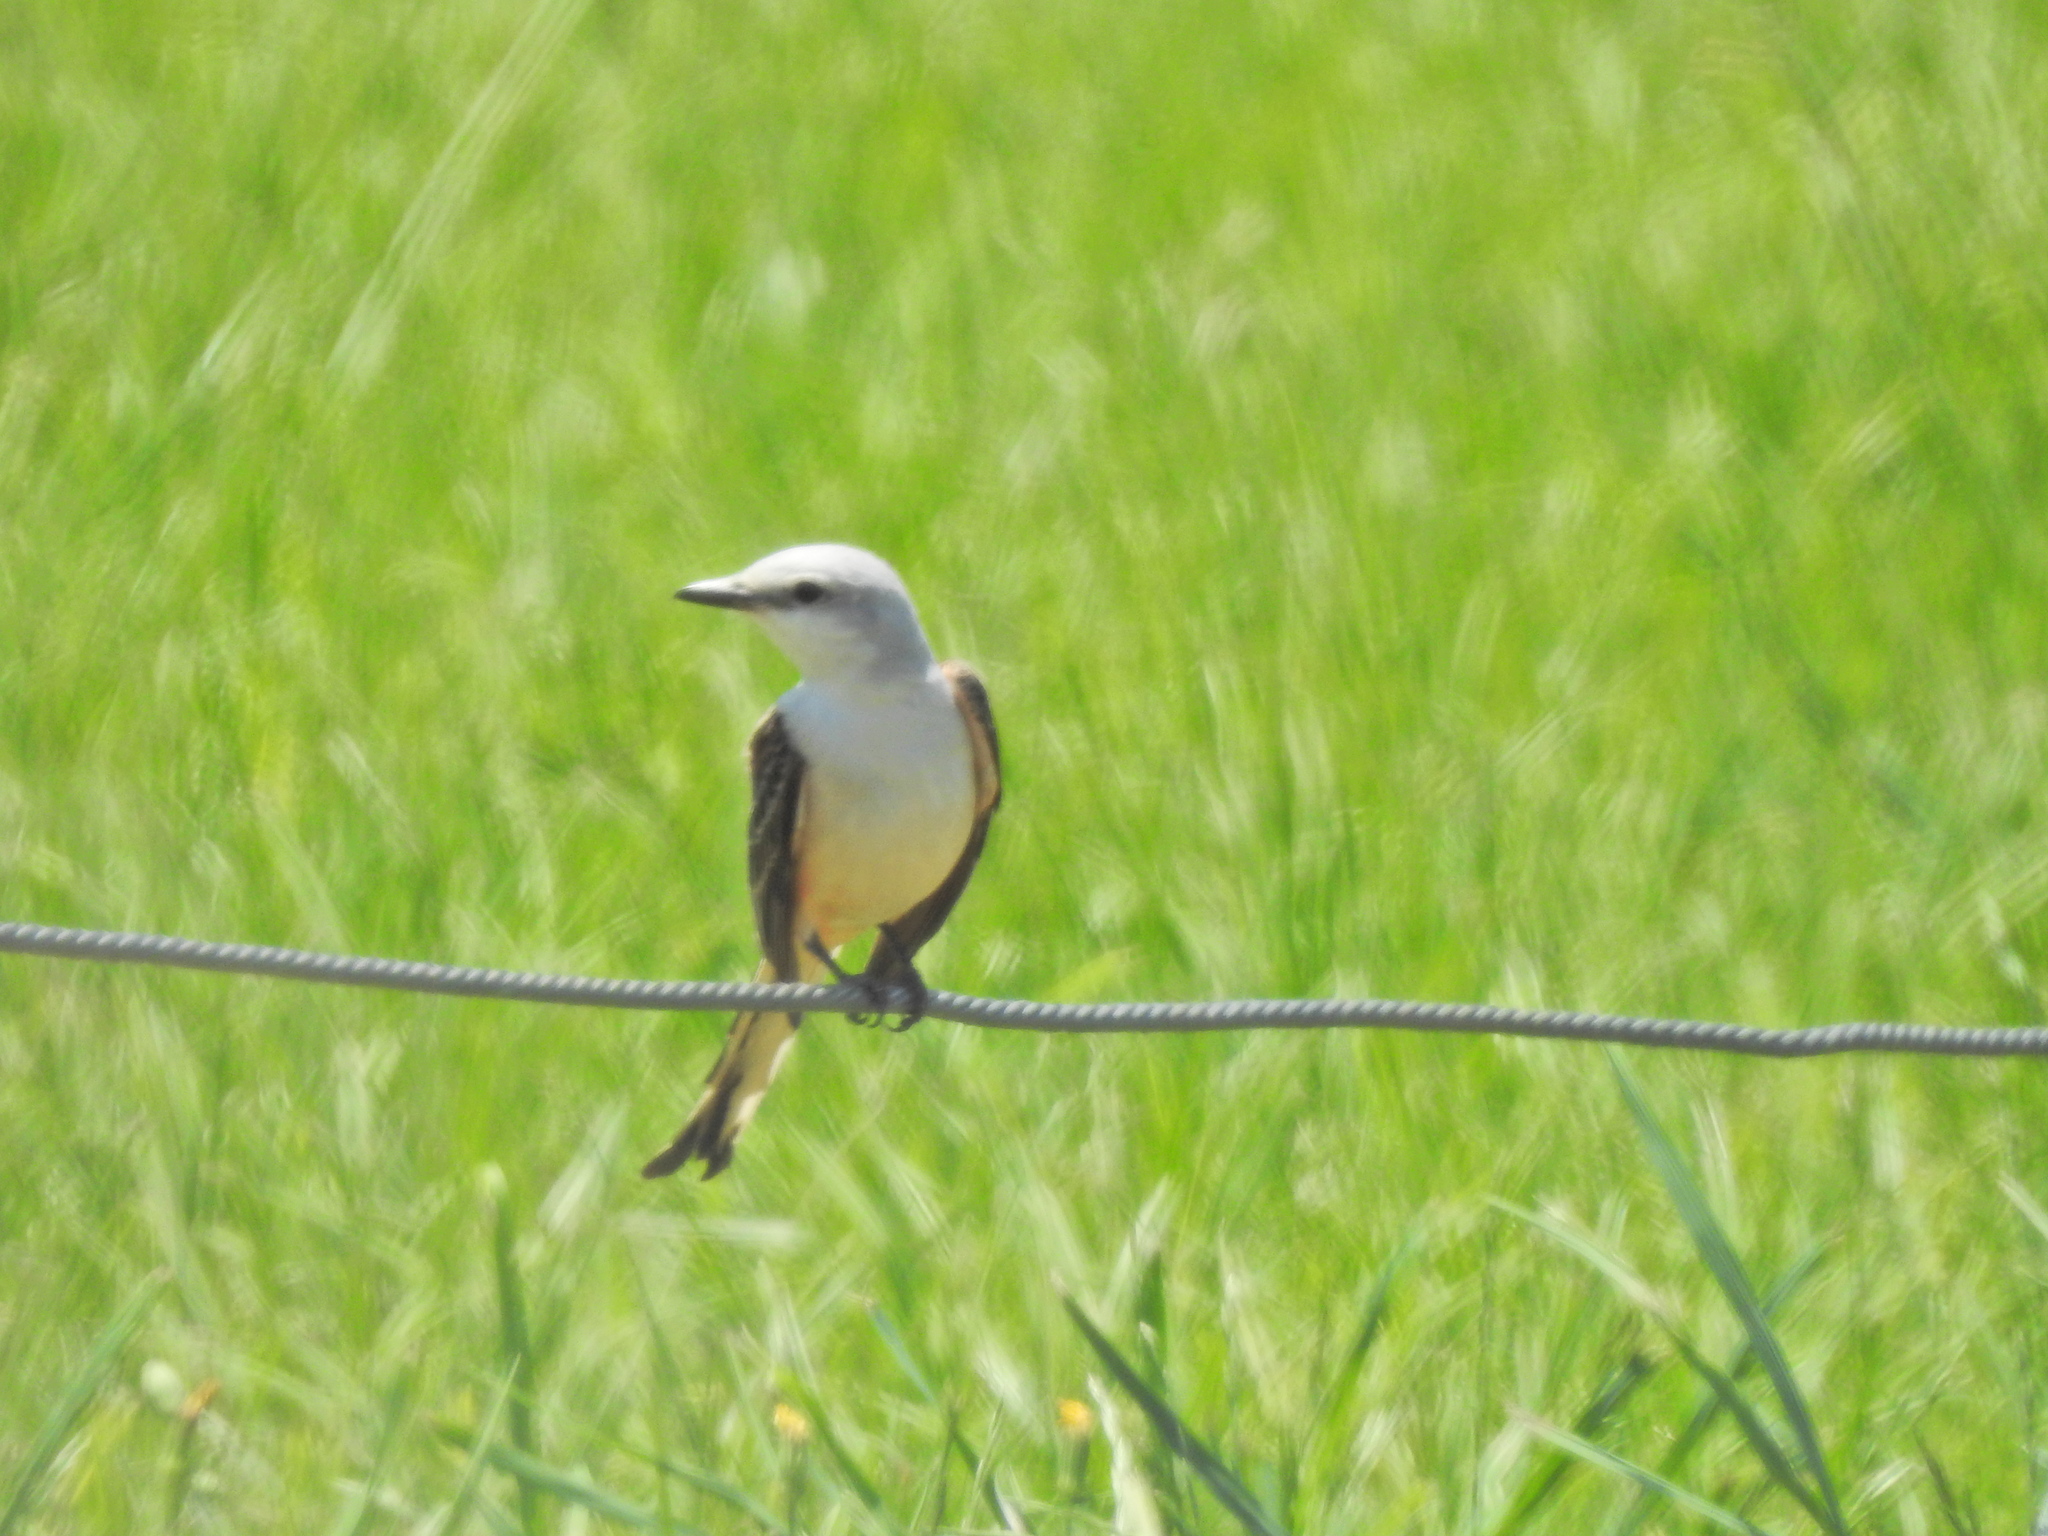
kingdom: Animalia
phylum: Chordata
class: Aves
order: Passeriformes
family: Tyrannidae
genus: Tyrannus
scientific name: Tyrannus forficatus
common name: Scissor-tailed flycatcher
